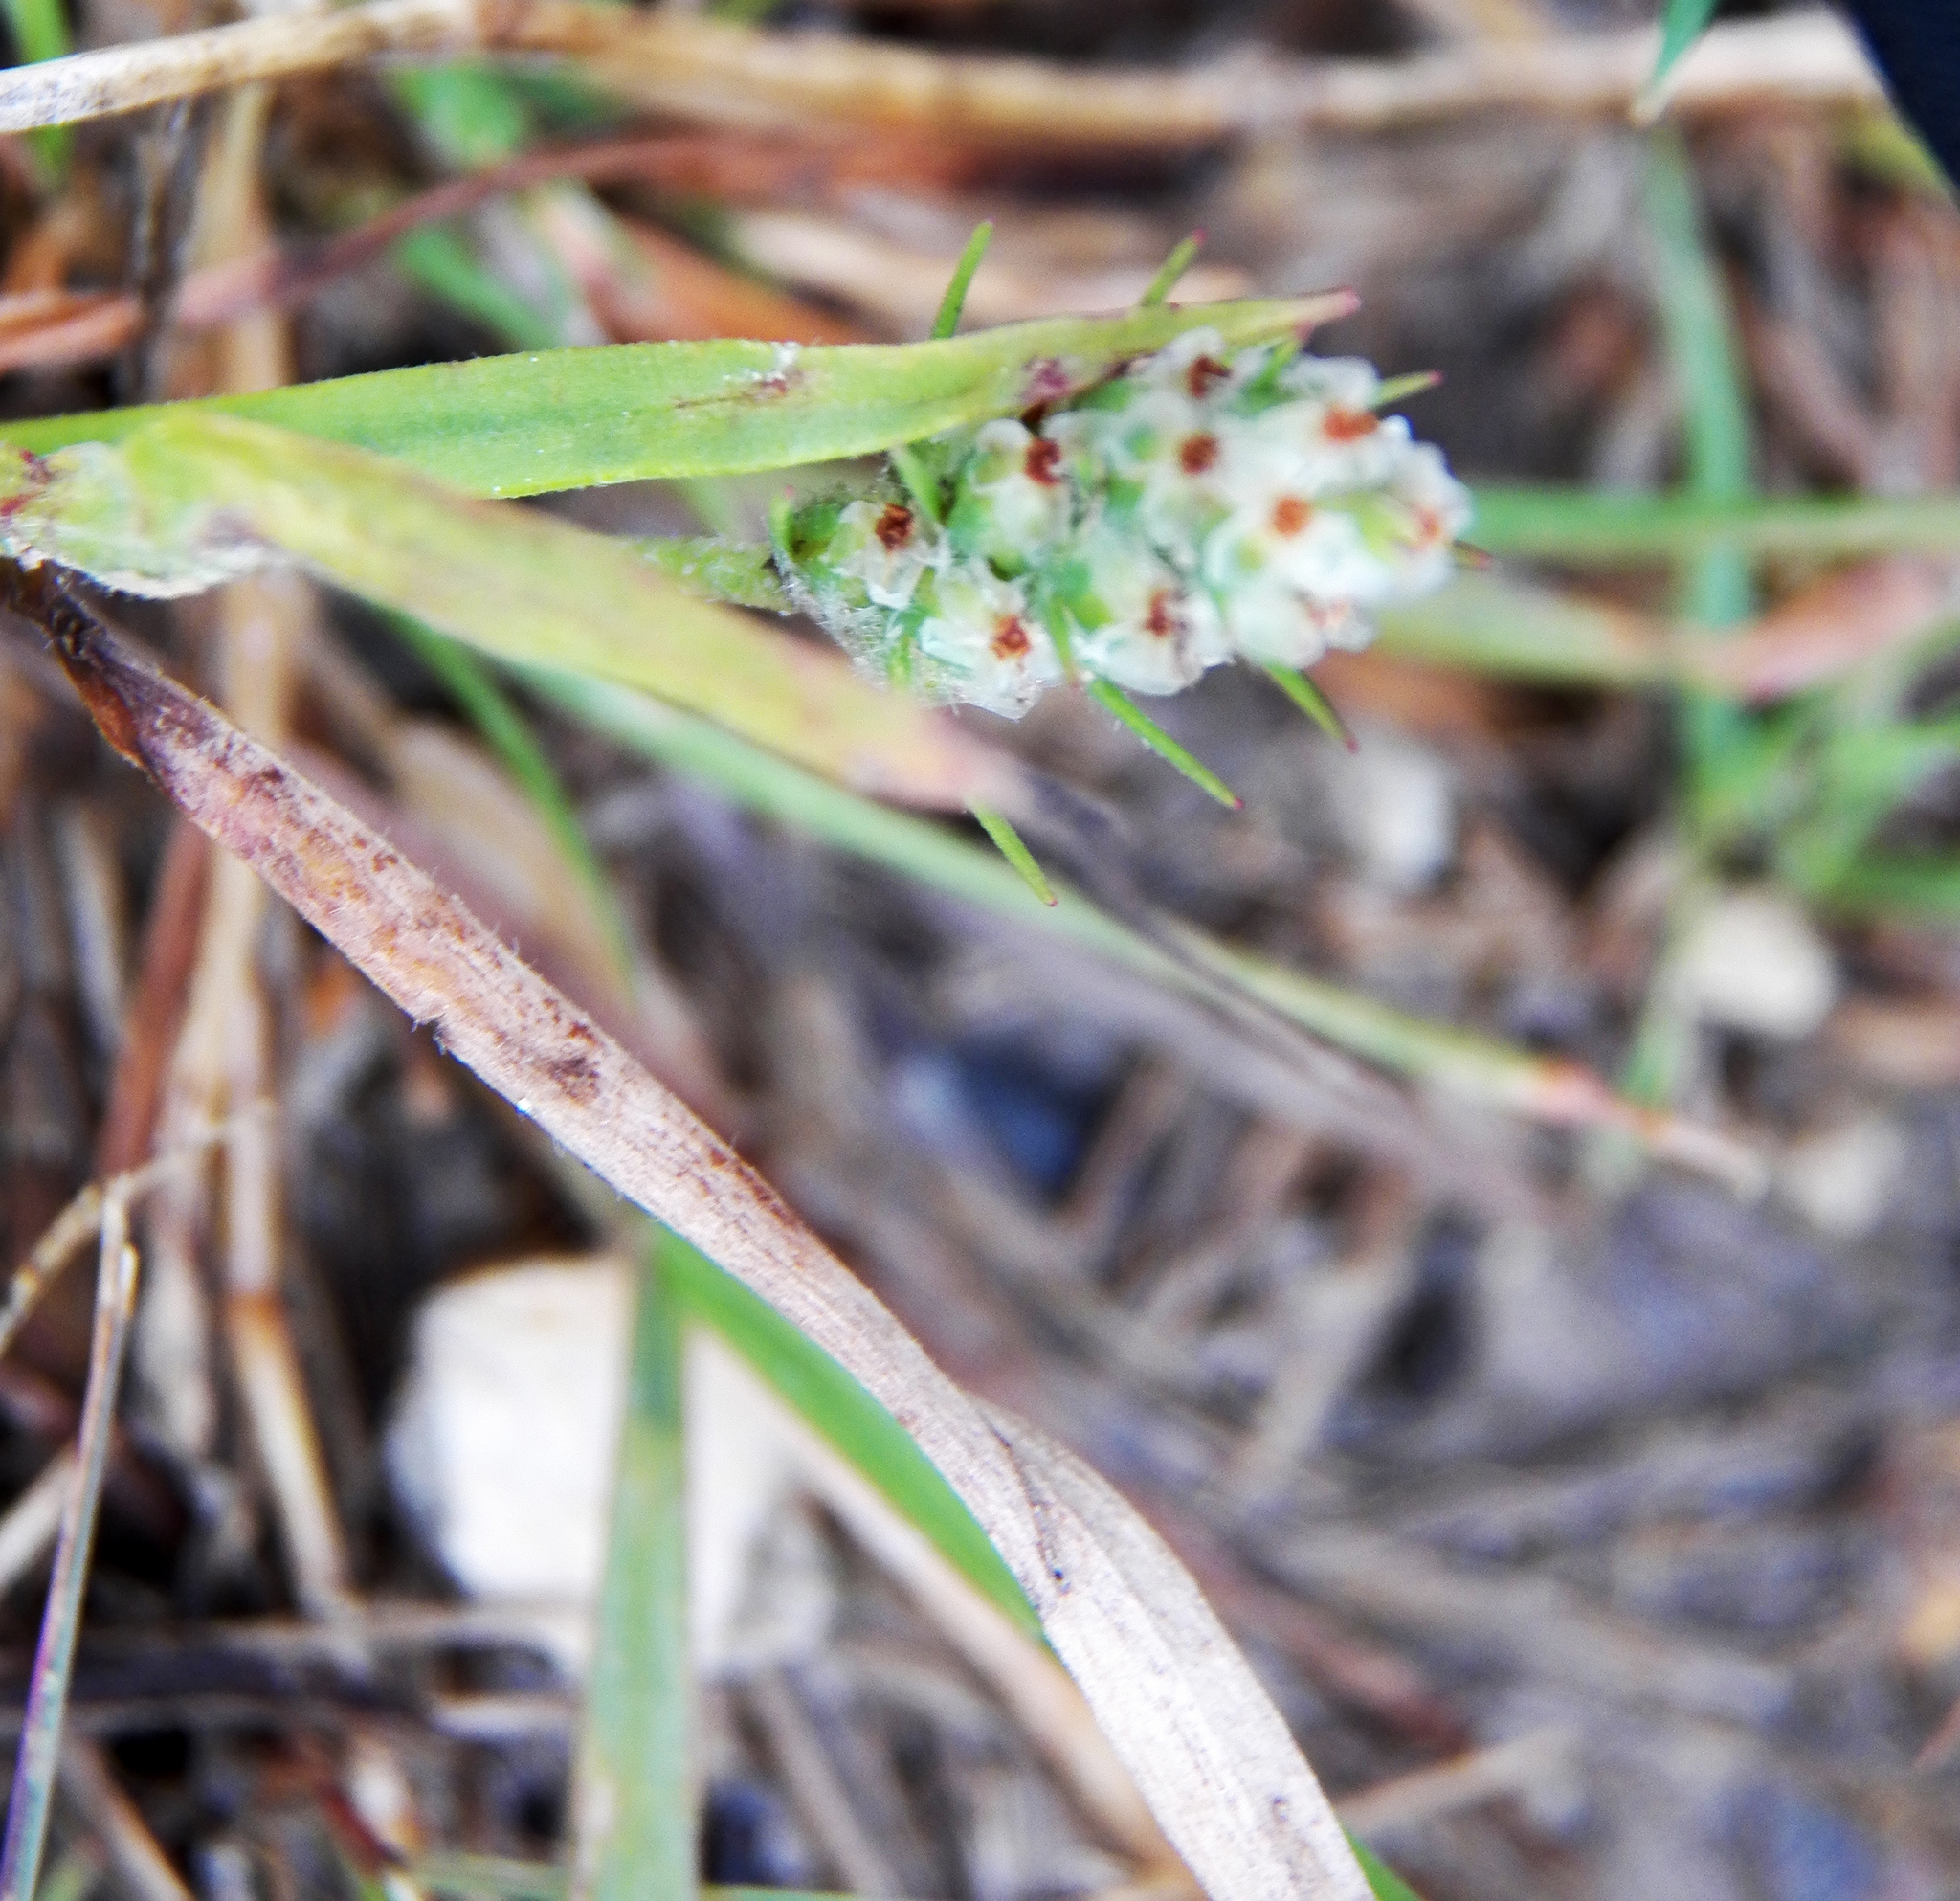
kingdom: Plantae
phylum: Tracheophyta
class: Magnoliopsida
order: Lamiales
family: Plantaginaceae
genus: Plantago
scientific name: Plantago aristata
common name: Bracted plantain
